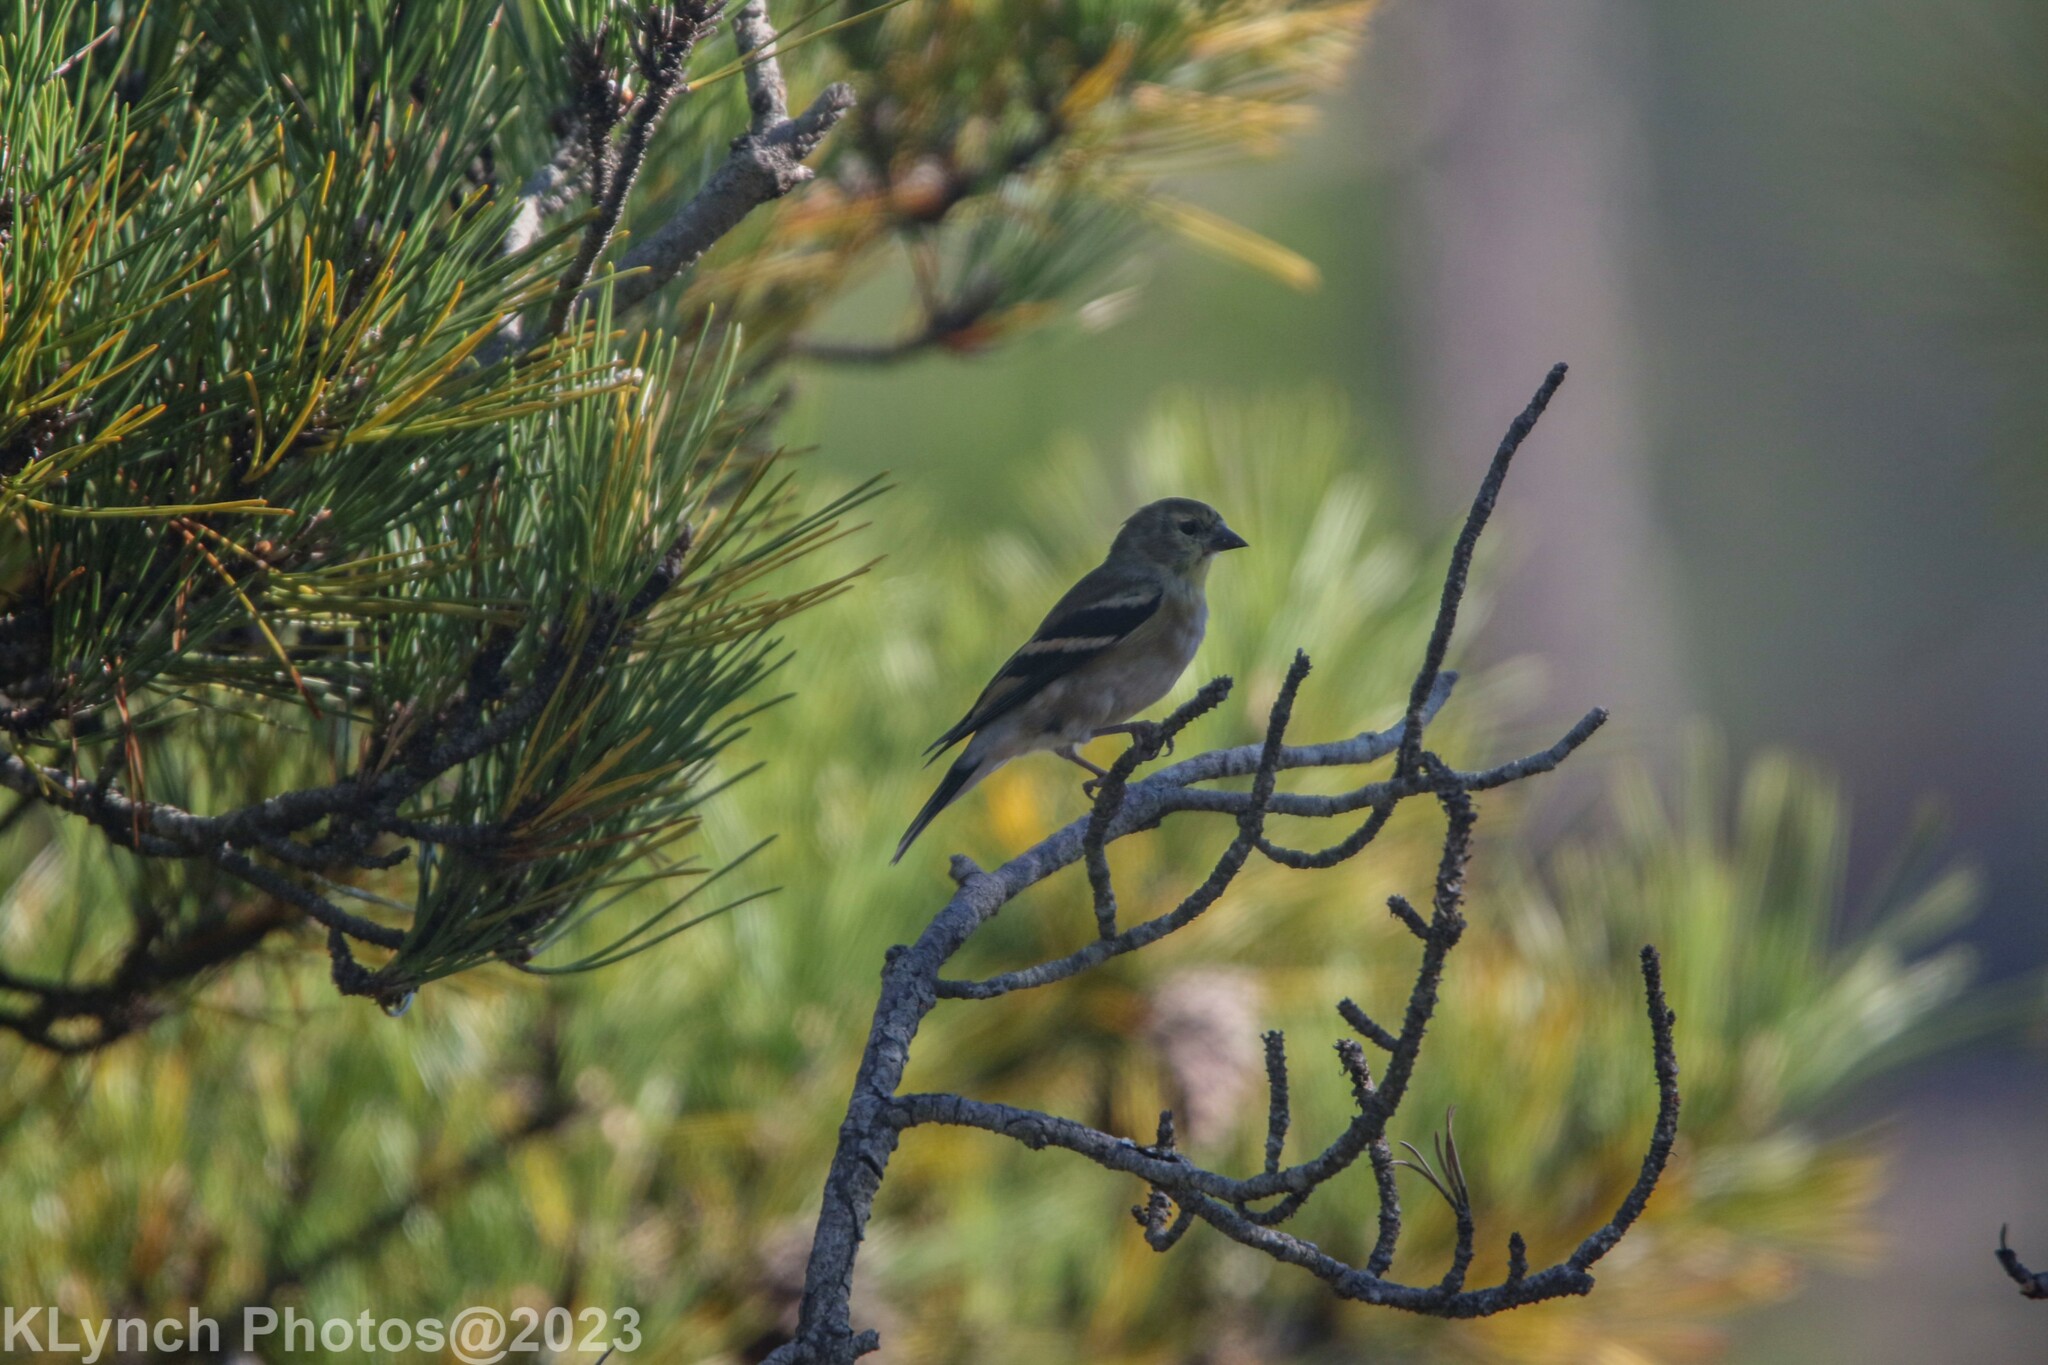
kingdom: Animalia
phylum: Chordata
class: Aves
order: Passeriformes
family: Fringillidae
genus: Spinus
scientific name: Spinus tristis
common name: American goldfinch
